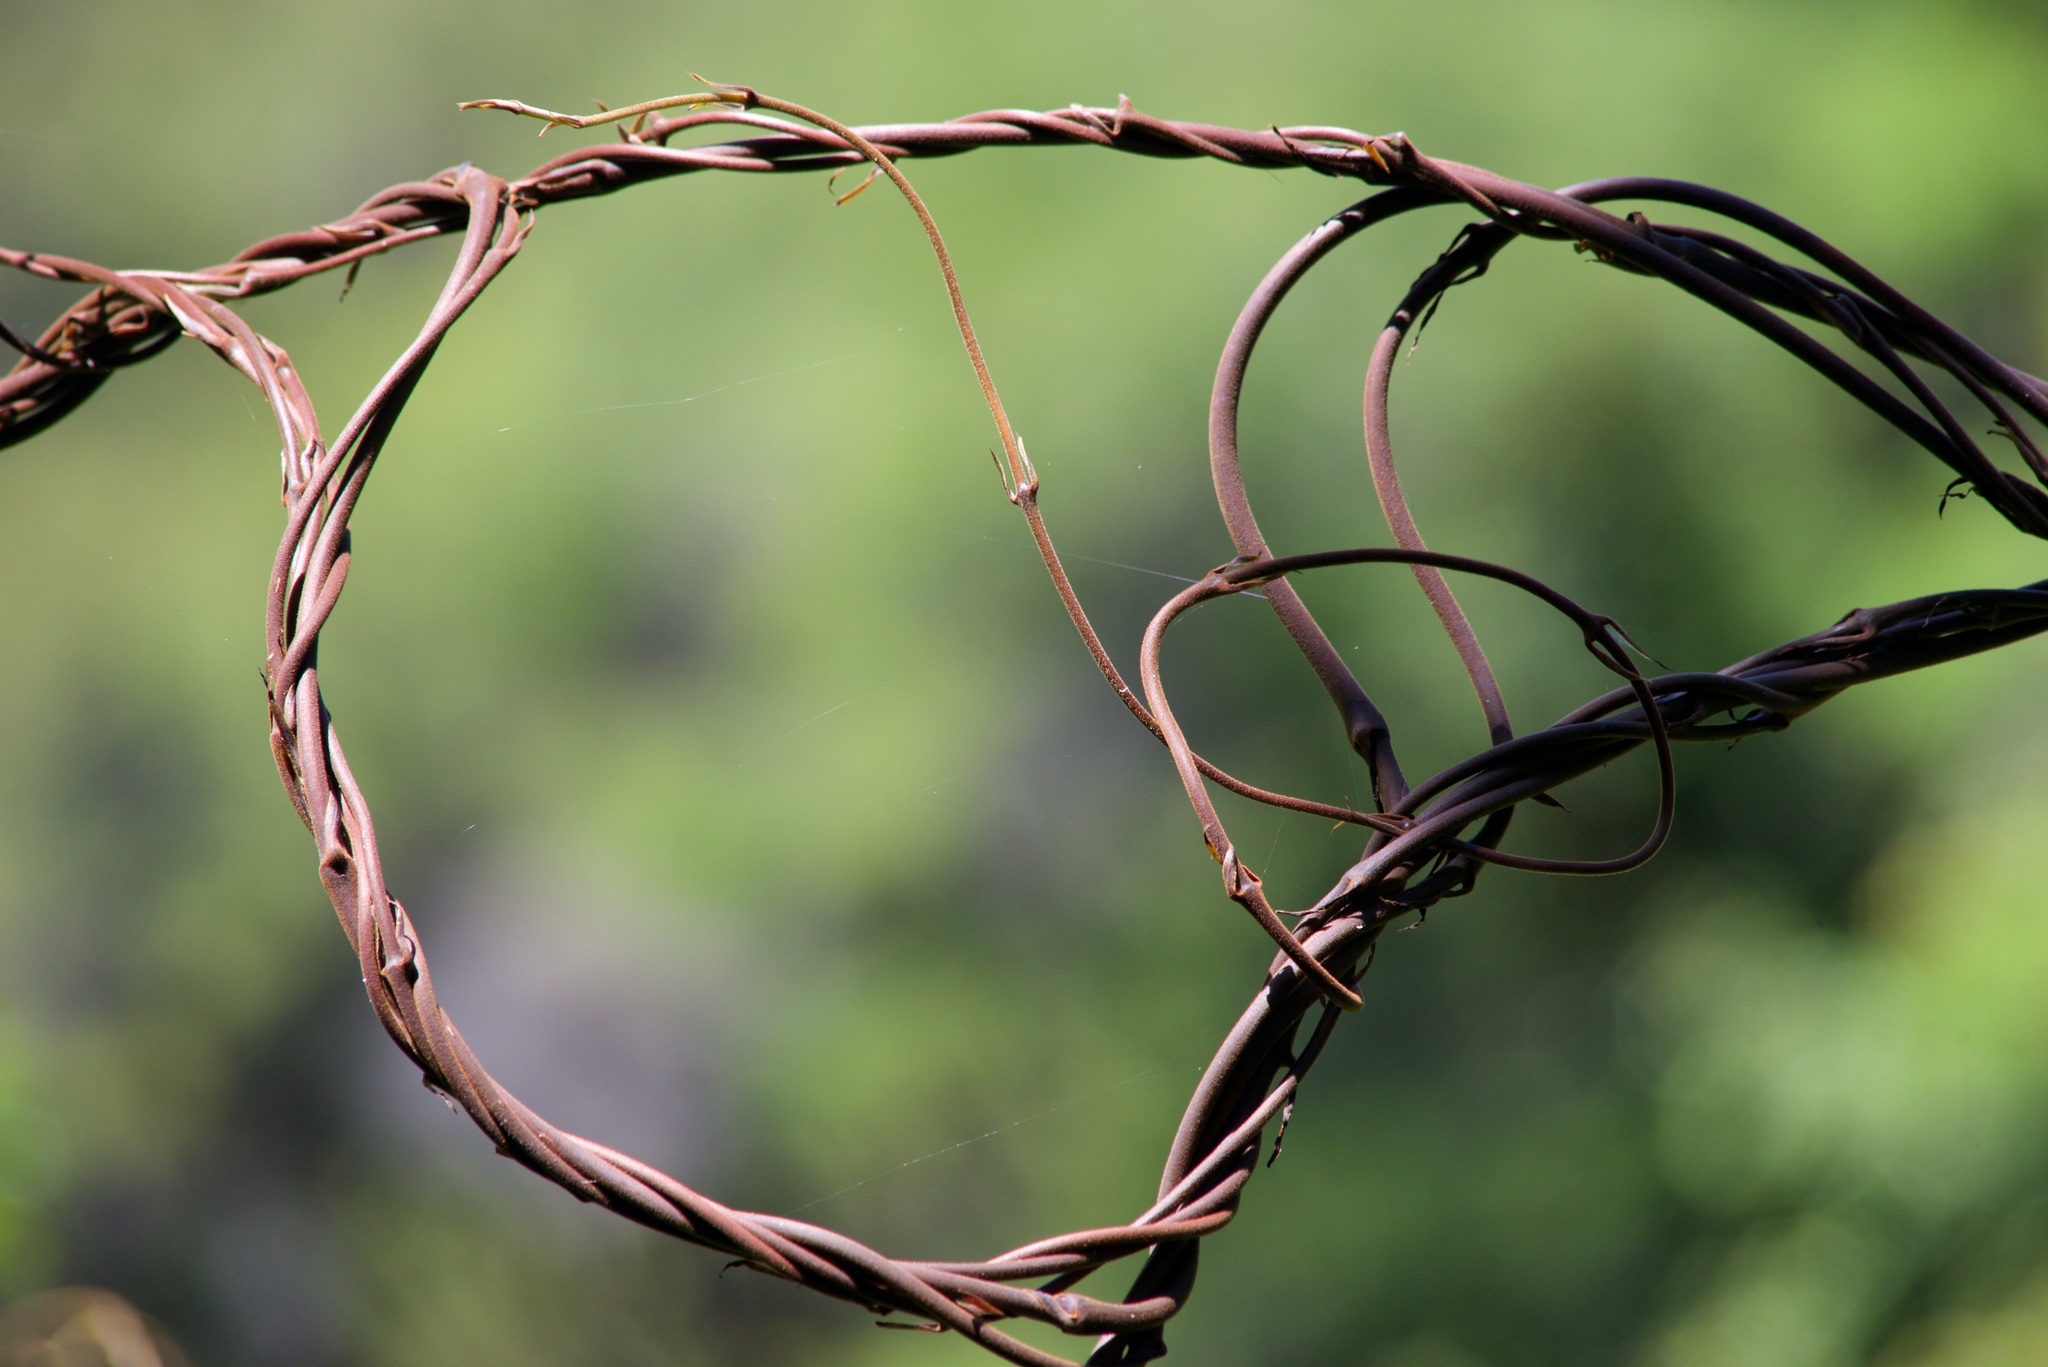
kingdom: Plantae
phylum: Tracheophyta
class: Liliopsida
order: Liliales
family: Ripogonaceae
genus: Ripogonum
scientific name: Ripogonum scandens
